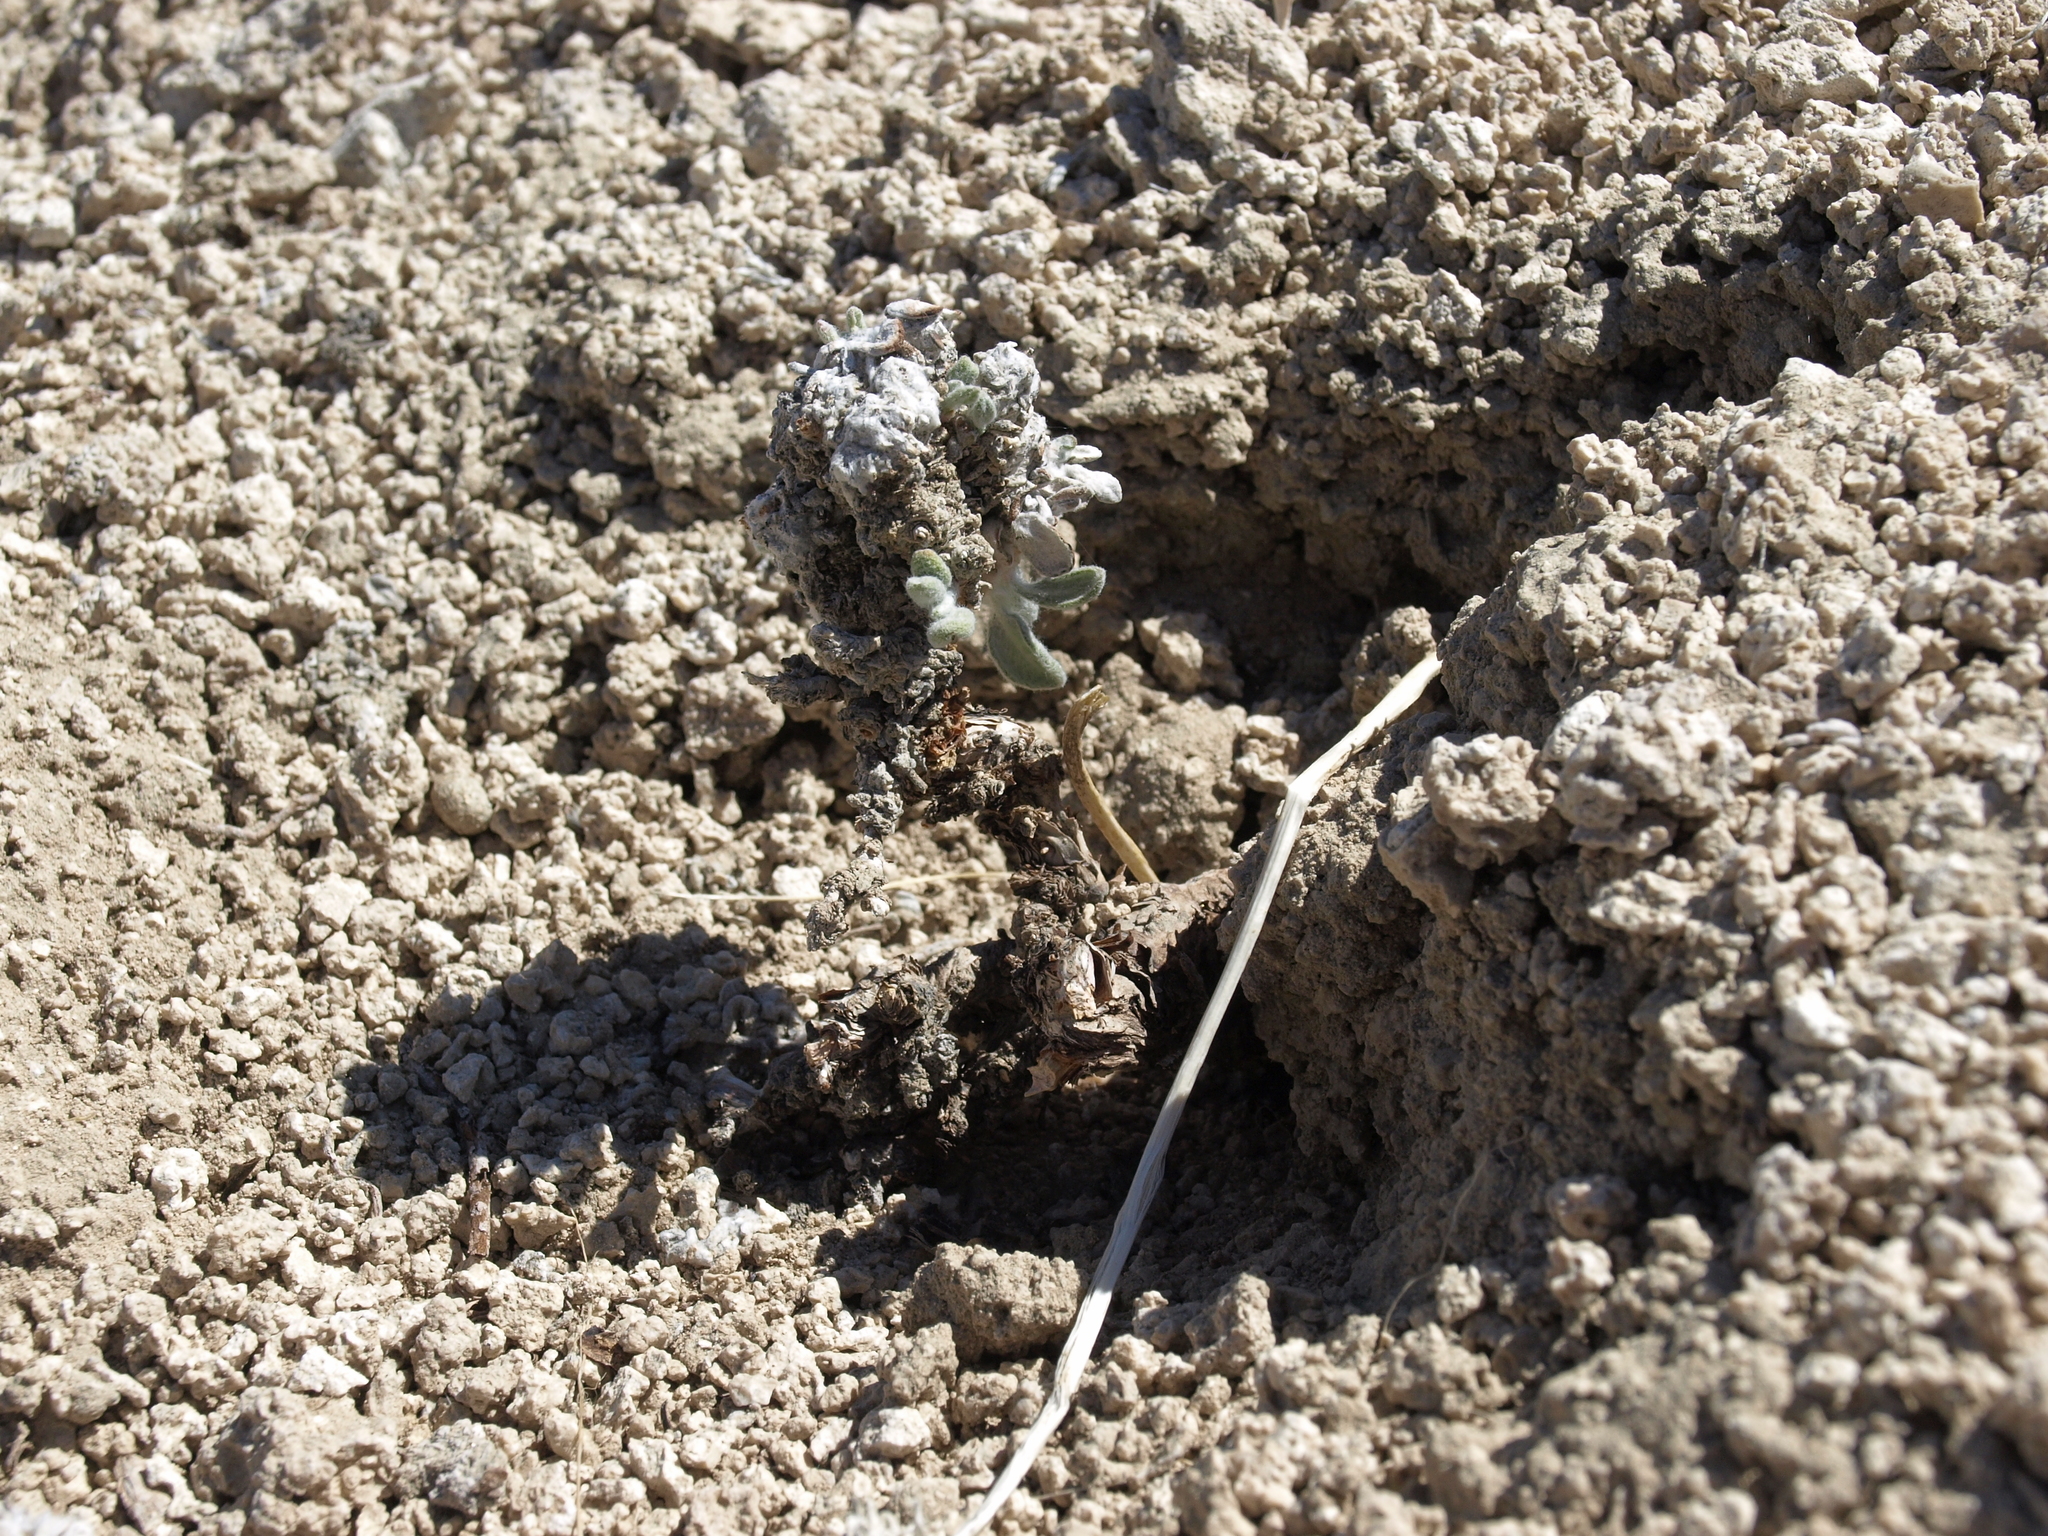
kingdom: Plantae
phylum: Tracheophyta
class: Magnoliopsida
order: Caryophyllales
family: Polygonaceae
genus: Eriogonum
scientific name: Eriogonum tiehmii
